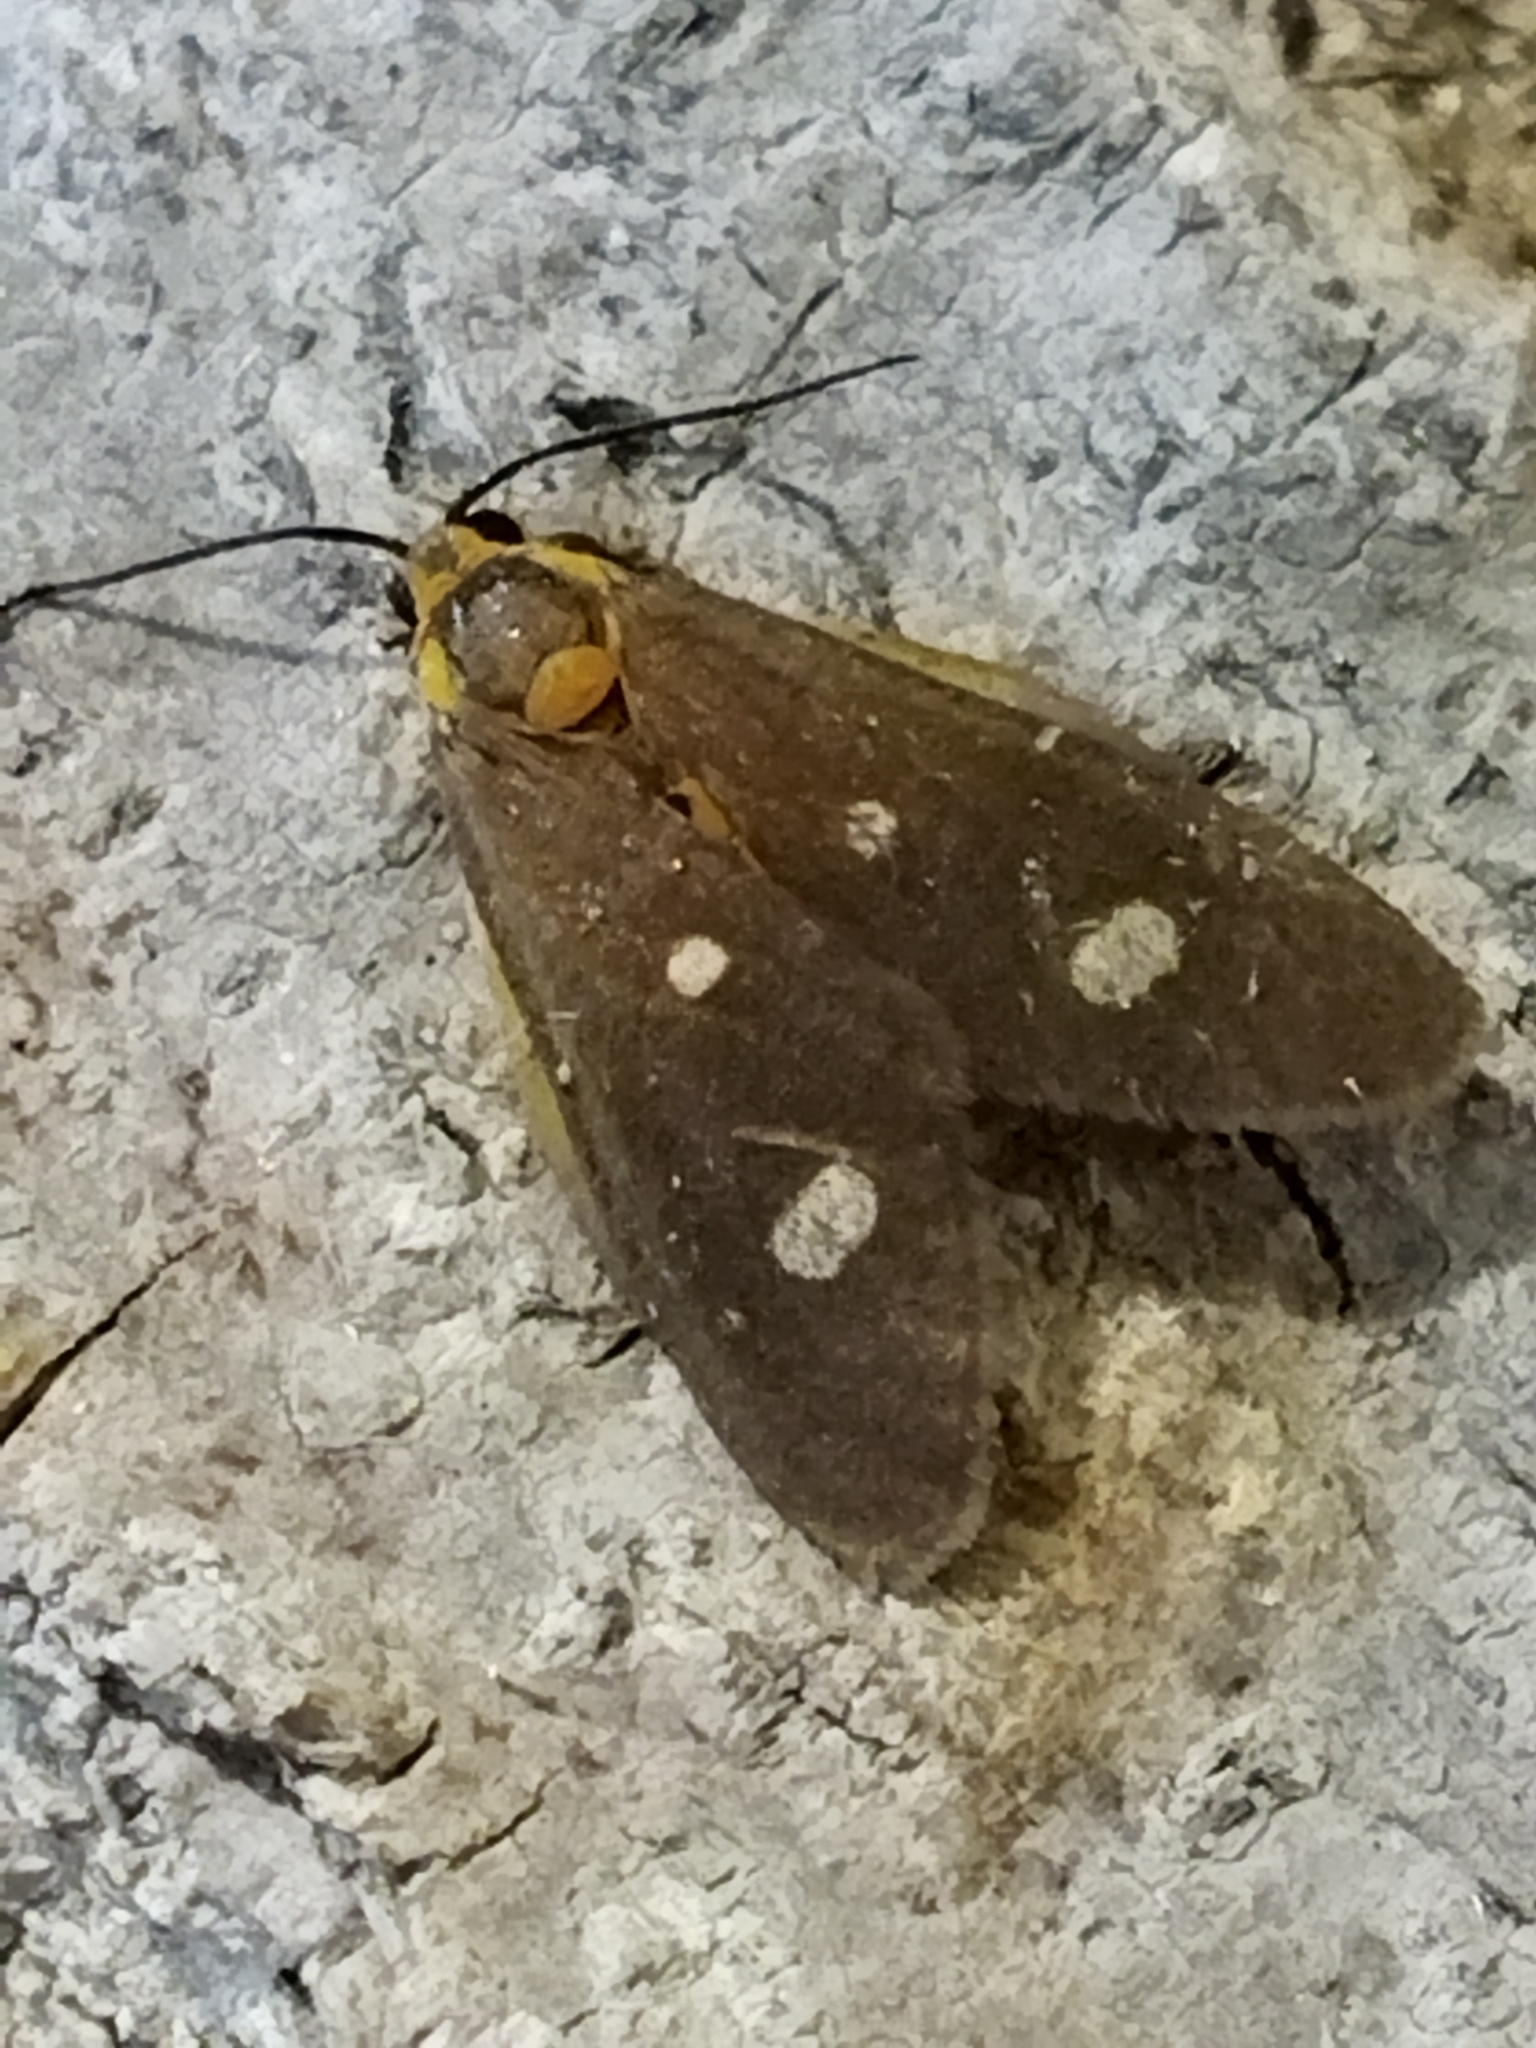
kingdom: Animalia
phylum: Arthropoda
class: Insecta
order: Lepidoptera
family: Erebidae
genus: Dysauxes
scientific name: Dysauxes punctata
